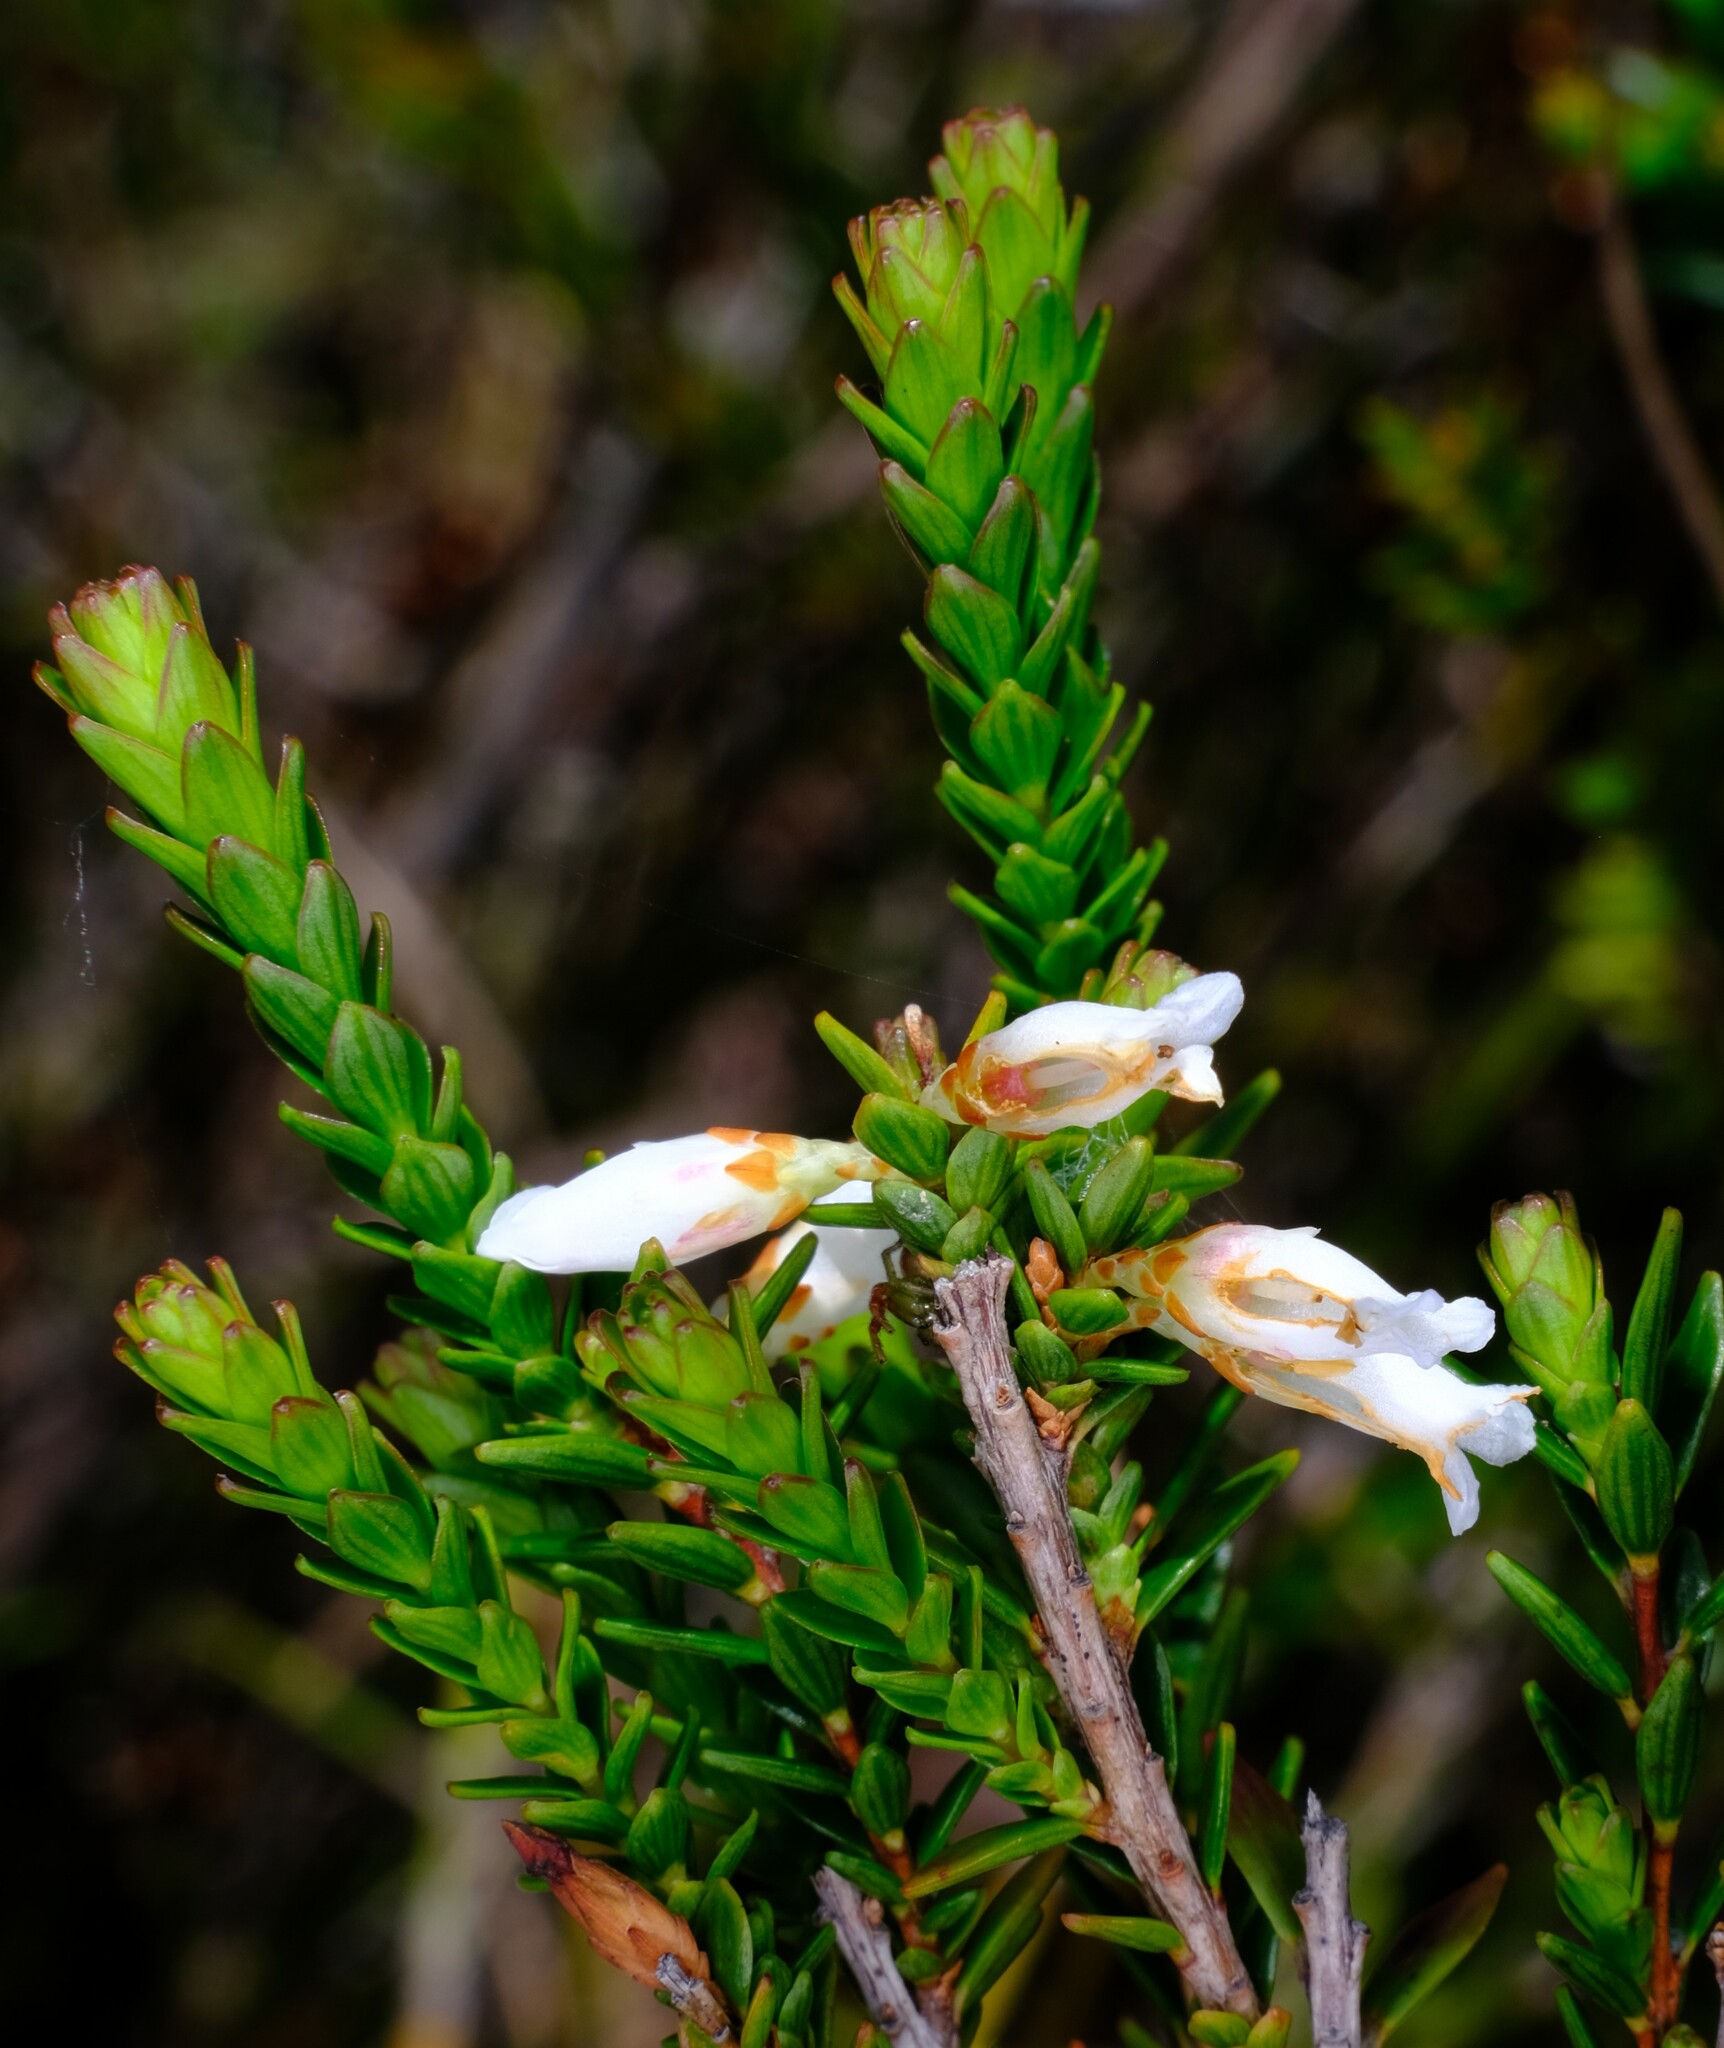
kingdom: Plantae
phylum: Tracheophyta
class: Magnoliopsida
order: Ericales
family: Ericaceae
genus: Epacris
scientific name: Epacris obtusifolia
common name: Blunt-leaf australian-heath
